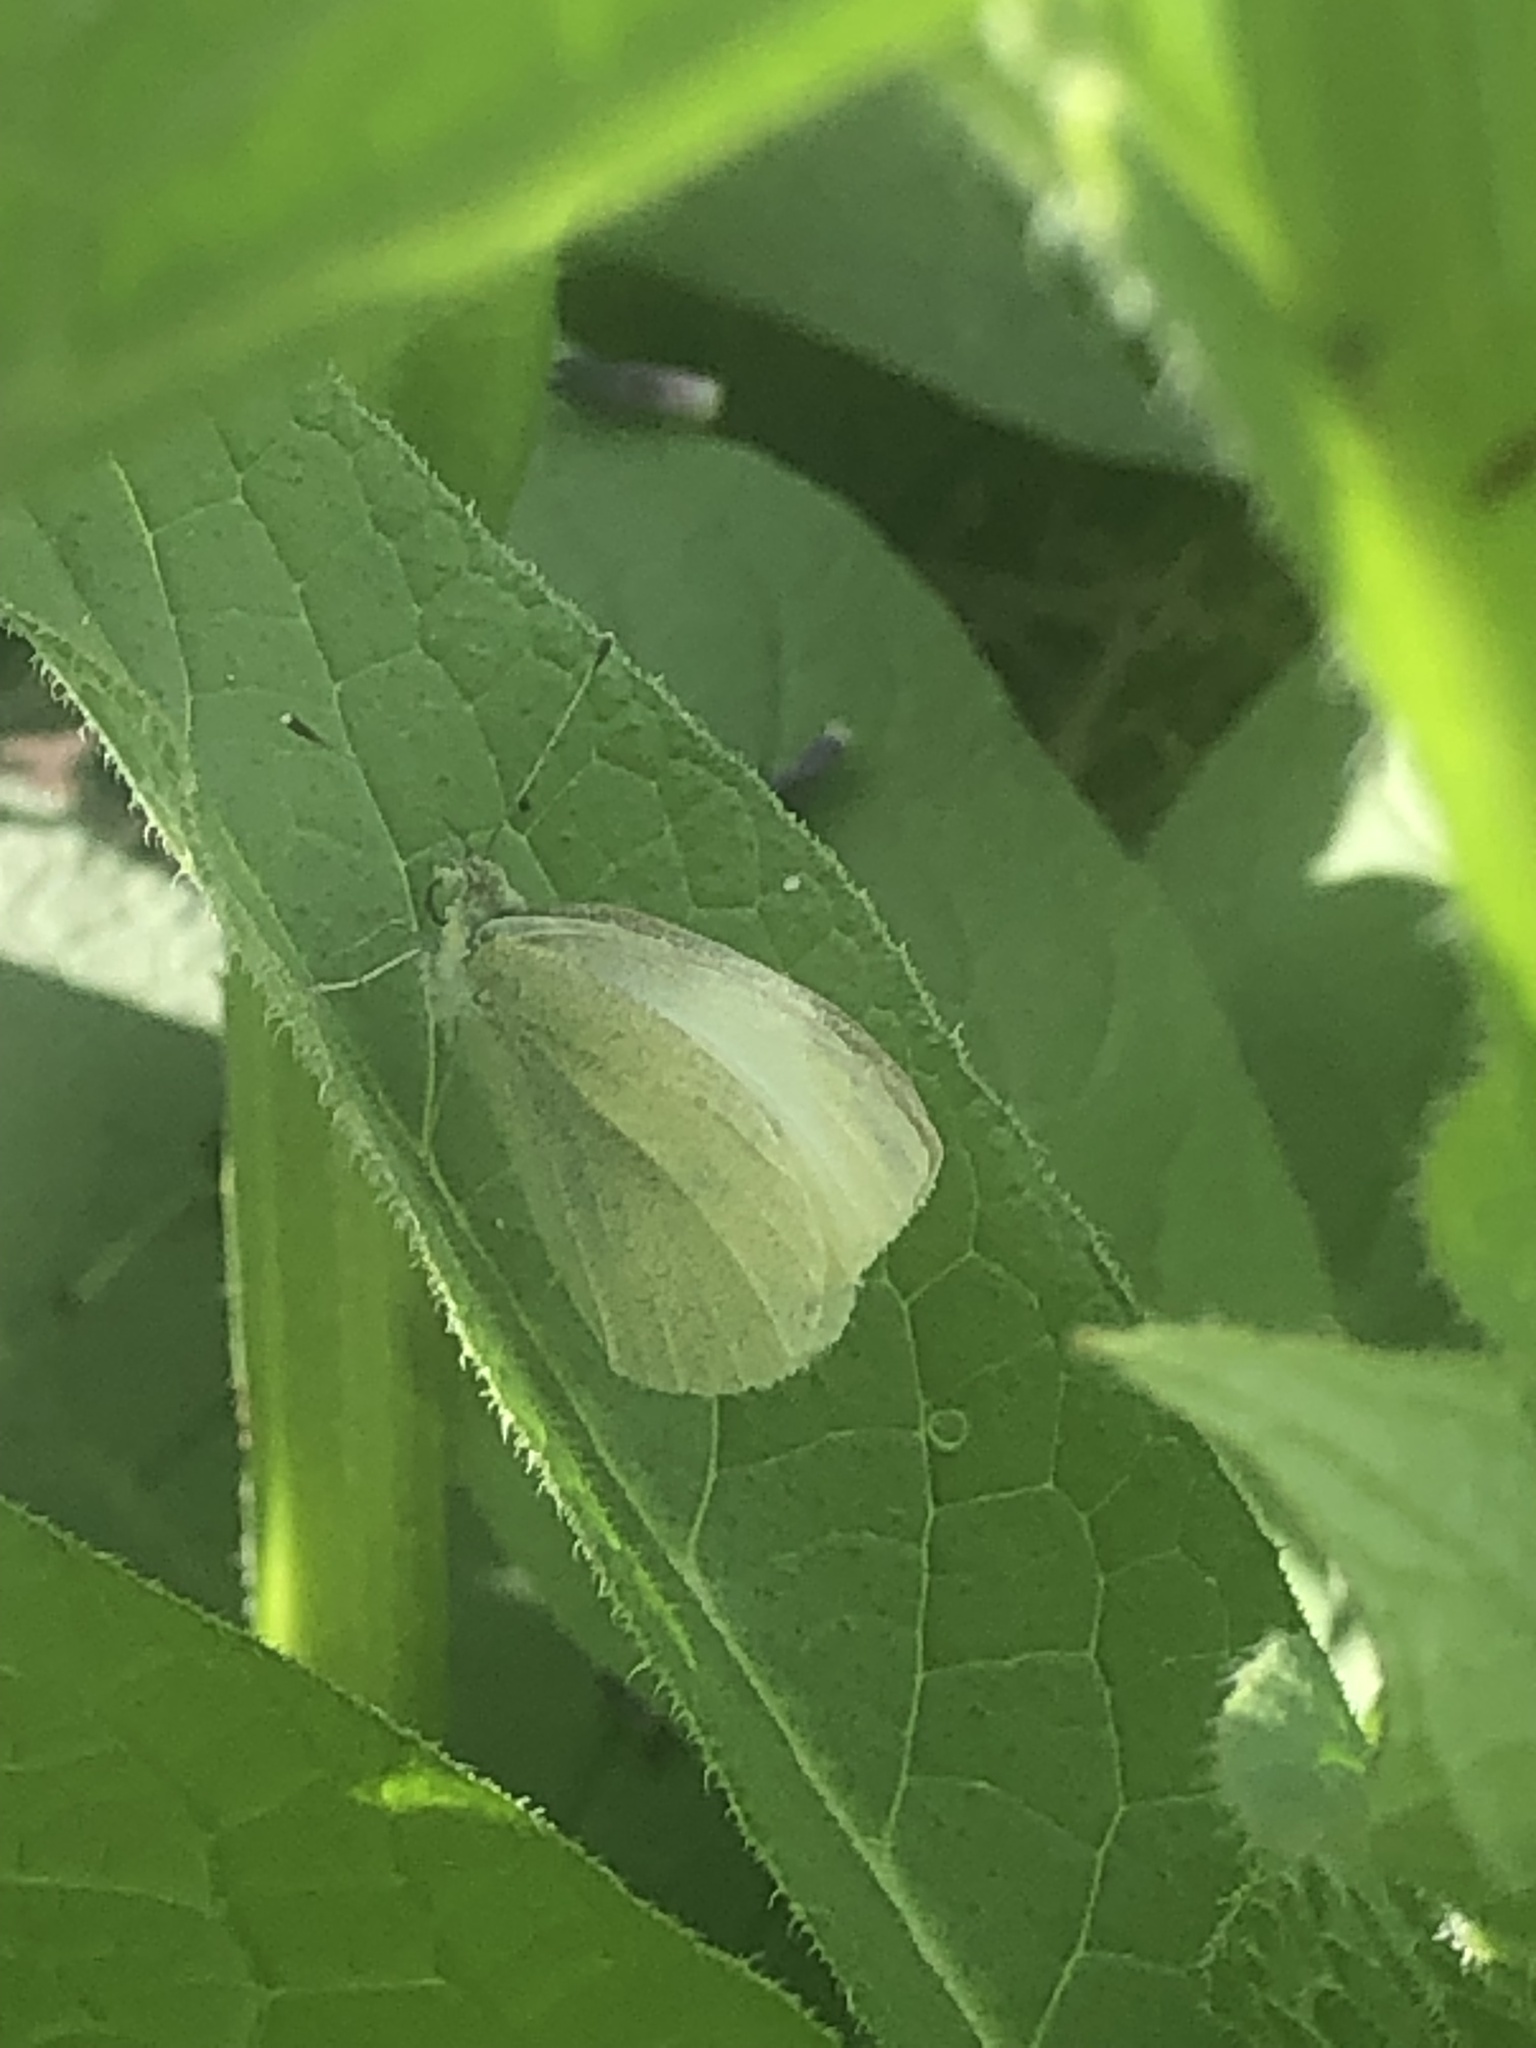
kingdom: Animalia
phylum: Arthropoda
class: Insecta
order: Lepidoptera
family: Pieridae
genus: Pieris
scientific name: Pieris rapae
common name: Small white
